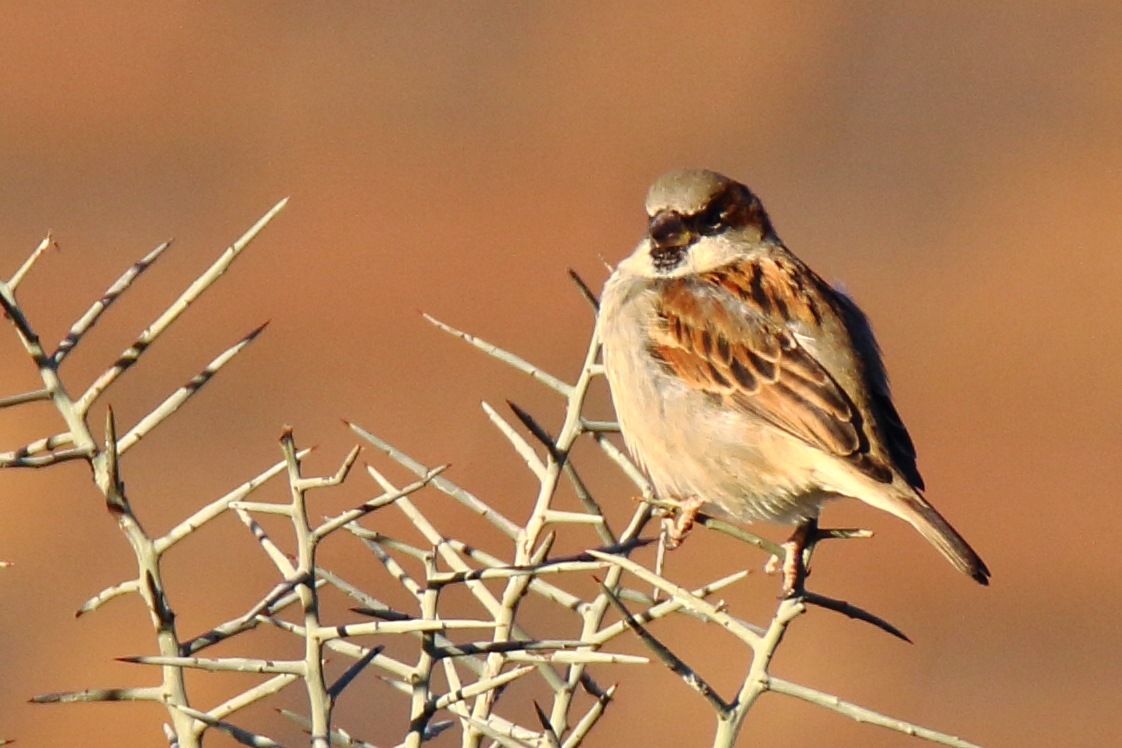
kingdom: Animalia
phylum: Chordata
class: Aves
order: Passeriformes
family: Passeridae
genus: Passer
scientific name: Passer domesticus
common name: House sparrow
